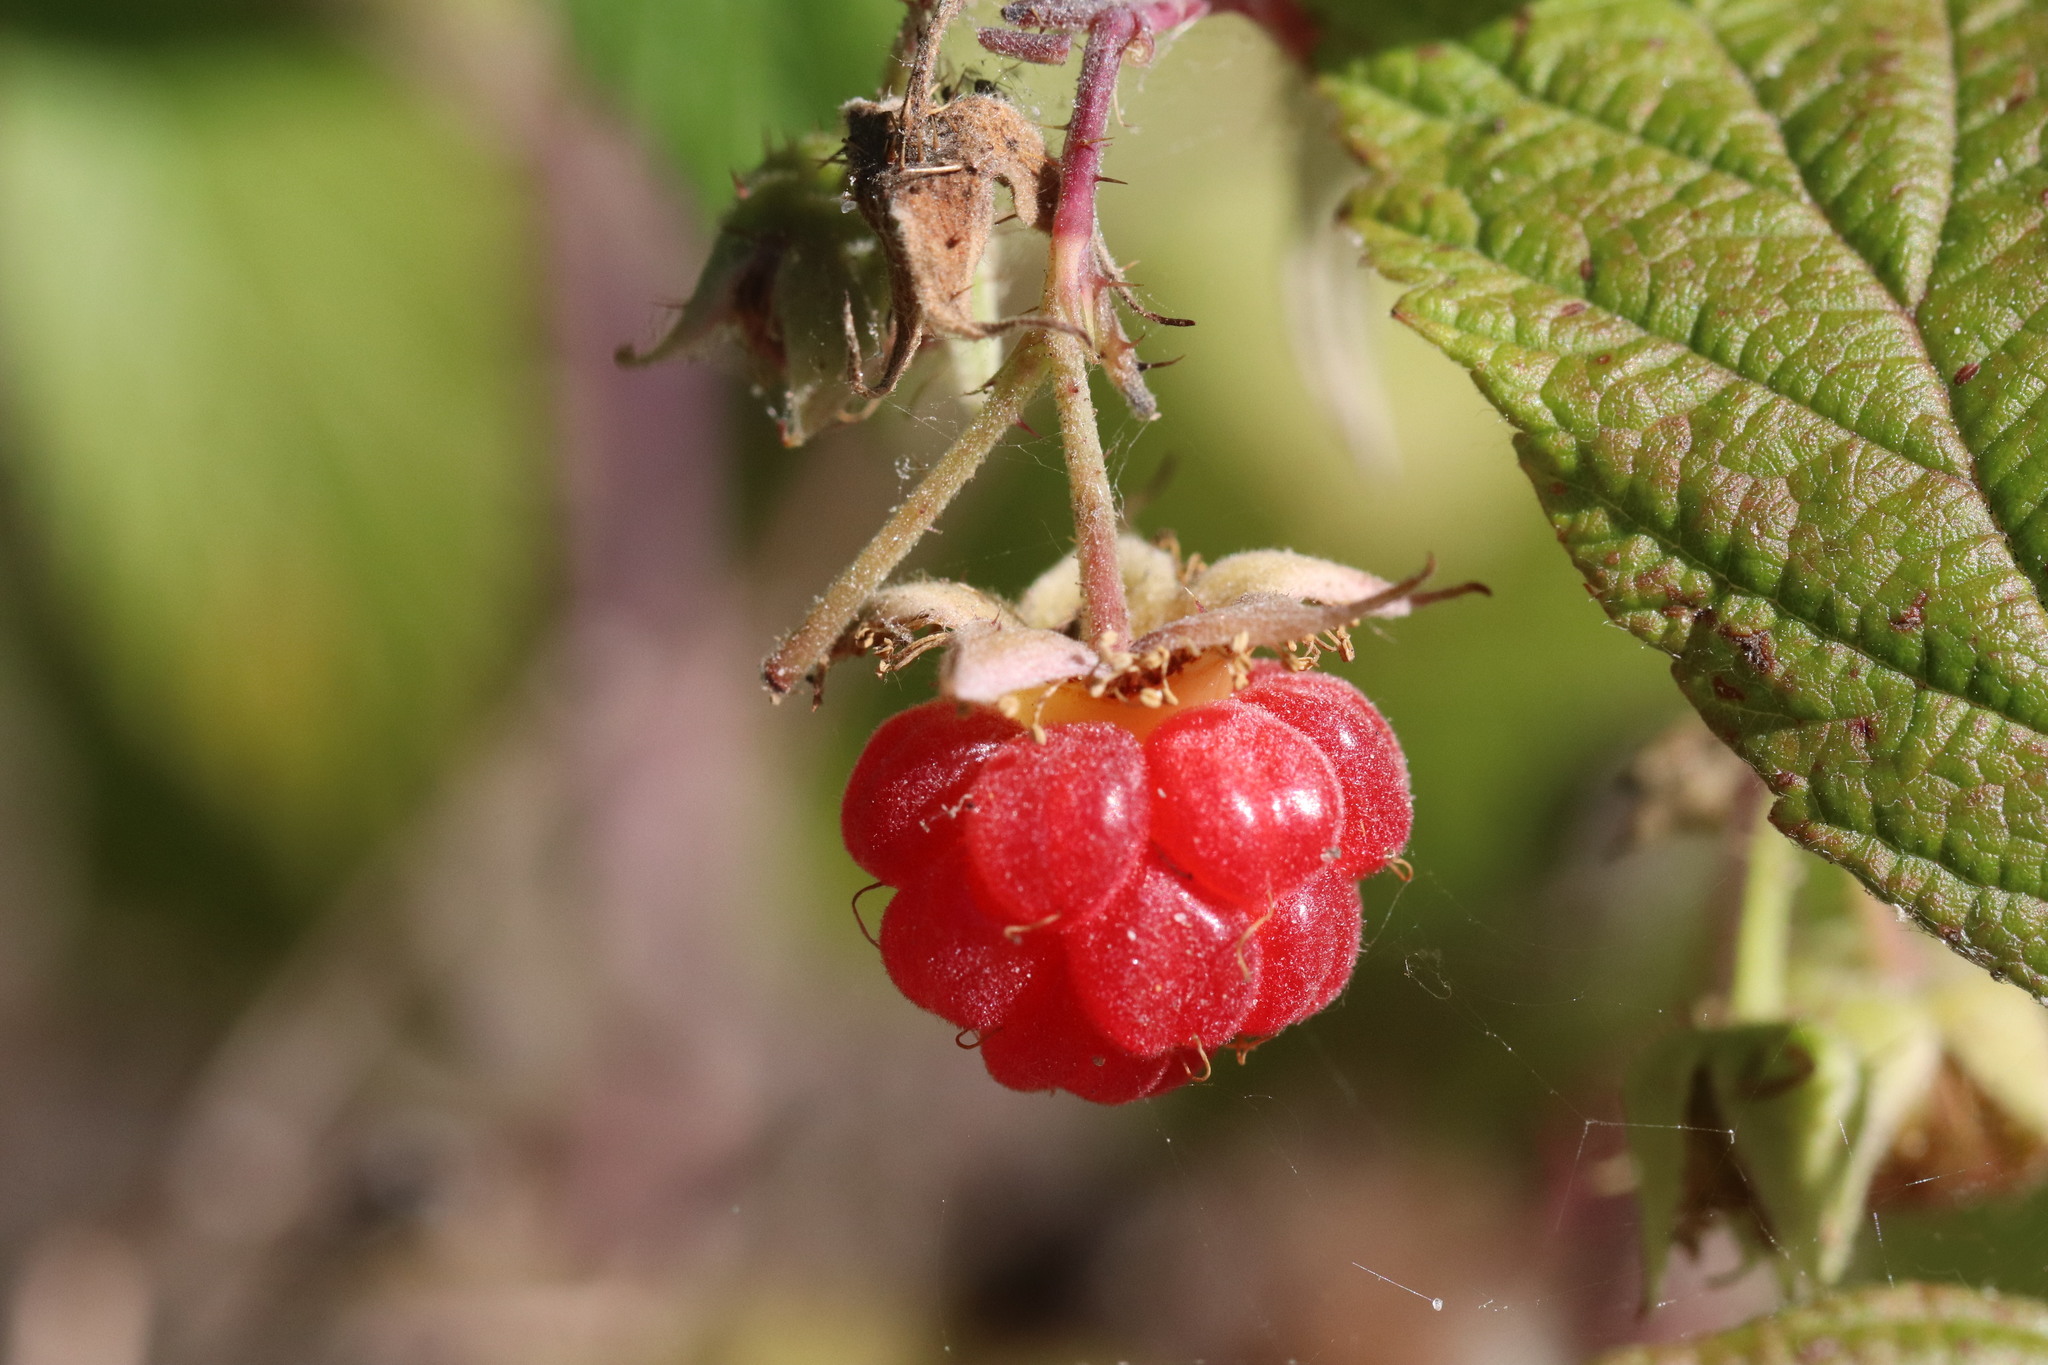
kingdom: Plantae
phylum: Tracheophyta
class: Magnoliopsida
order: Rosales
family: Rosaceae
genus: Rubus
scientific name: Rubus idaeus
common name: Raspberry
